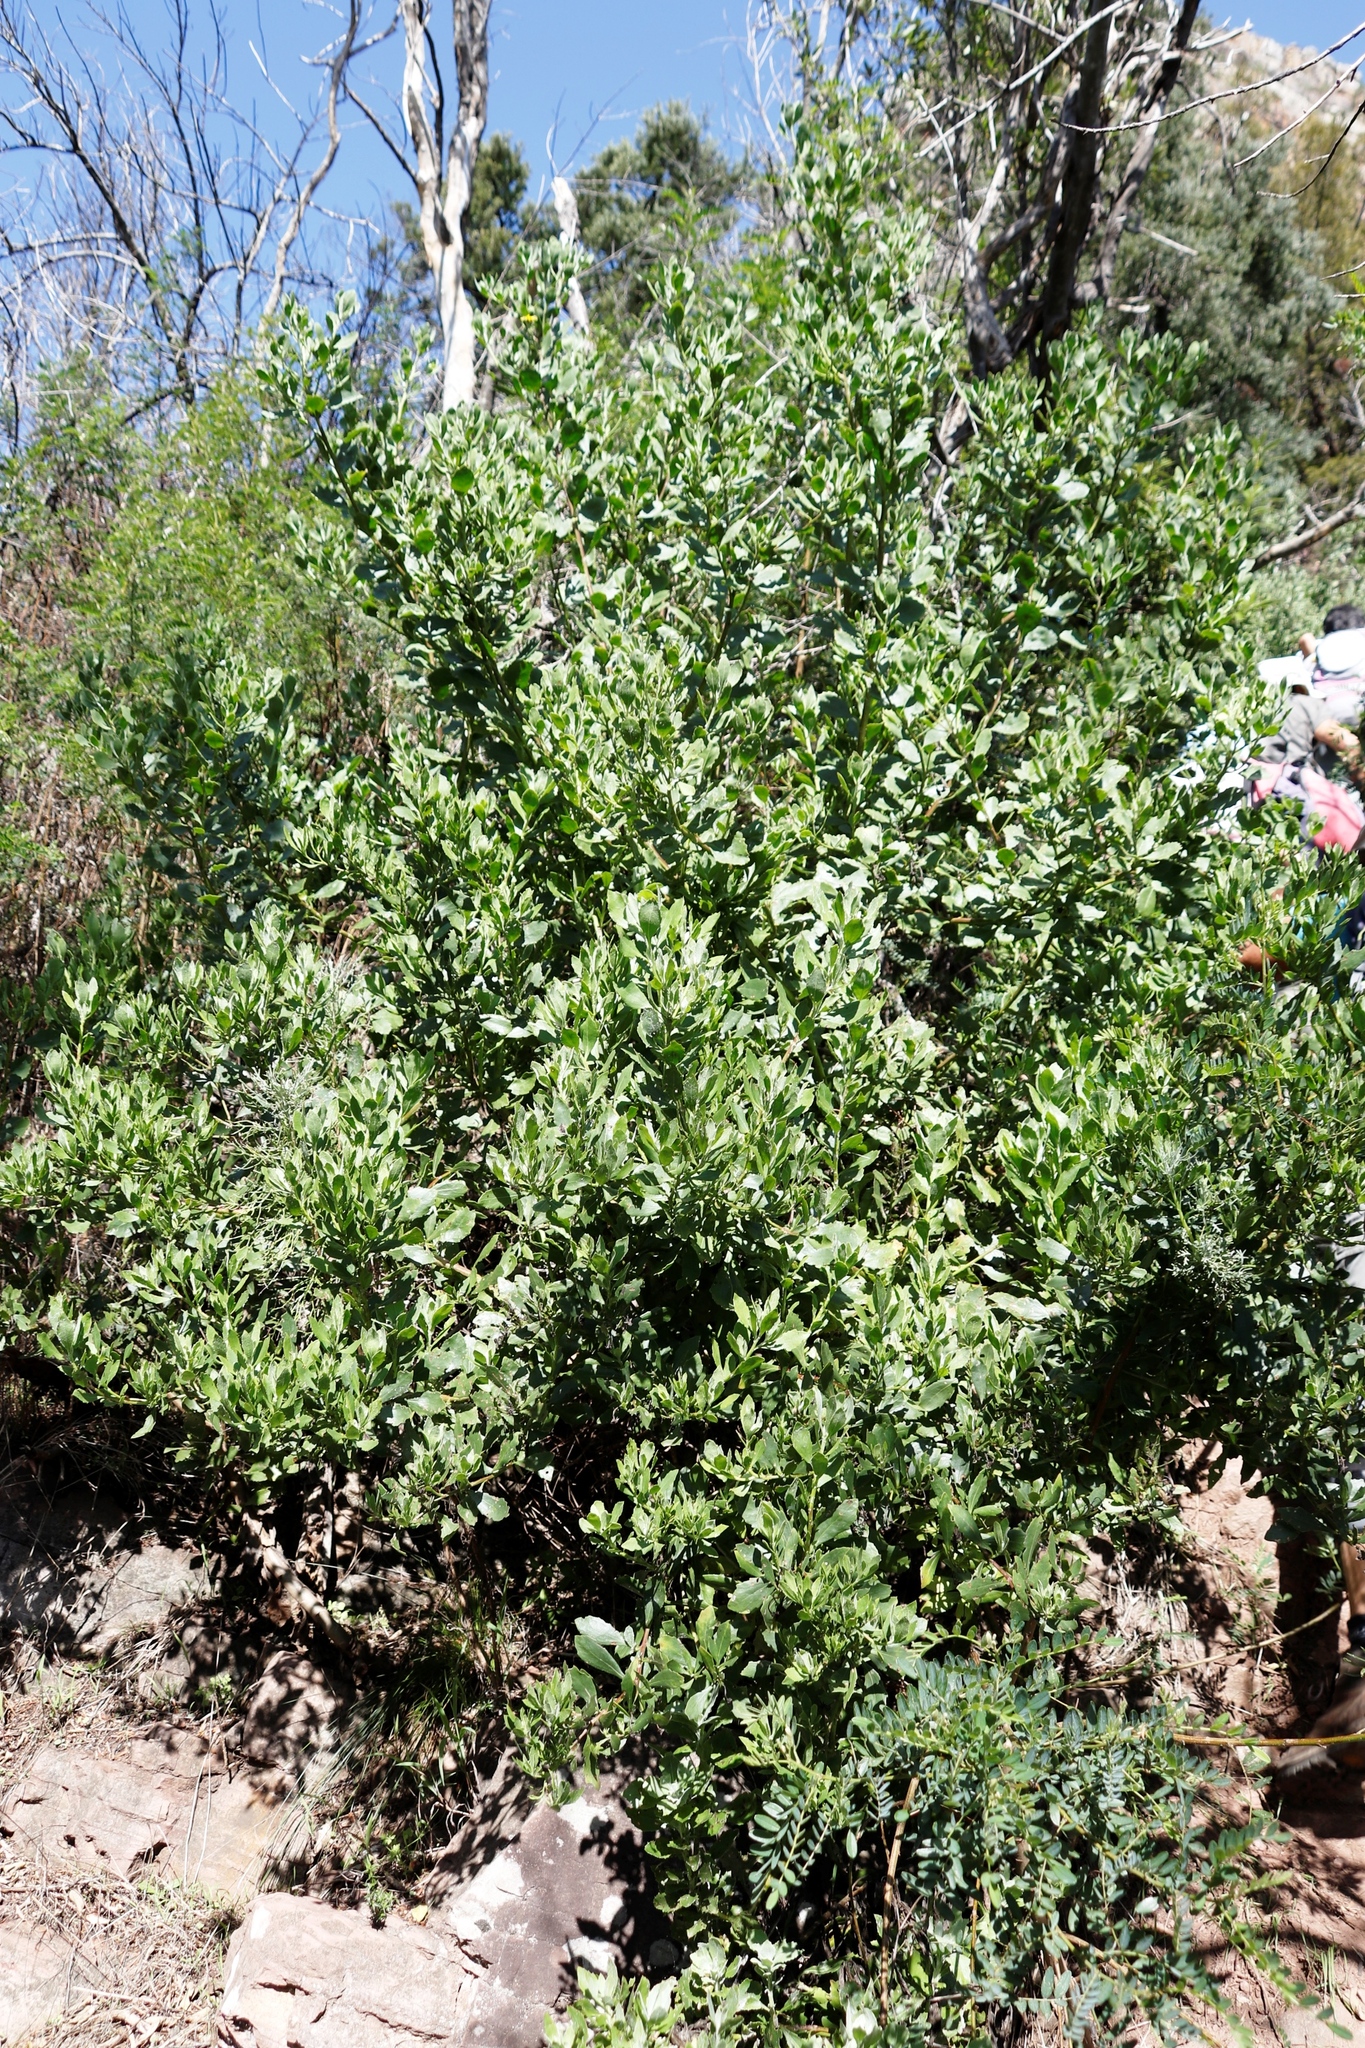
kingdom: Plantae
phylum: Tracheophyta
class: Magnoliopsida
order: Asterales
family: Asteraceae
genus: Osteospermum
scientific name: Osteospermum moniliferum
